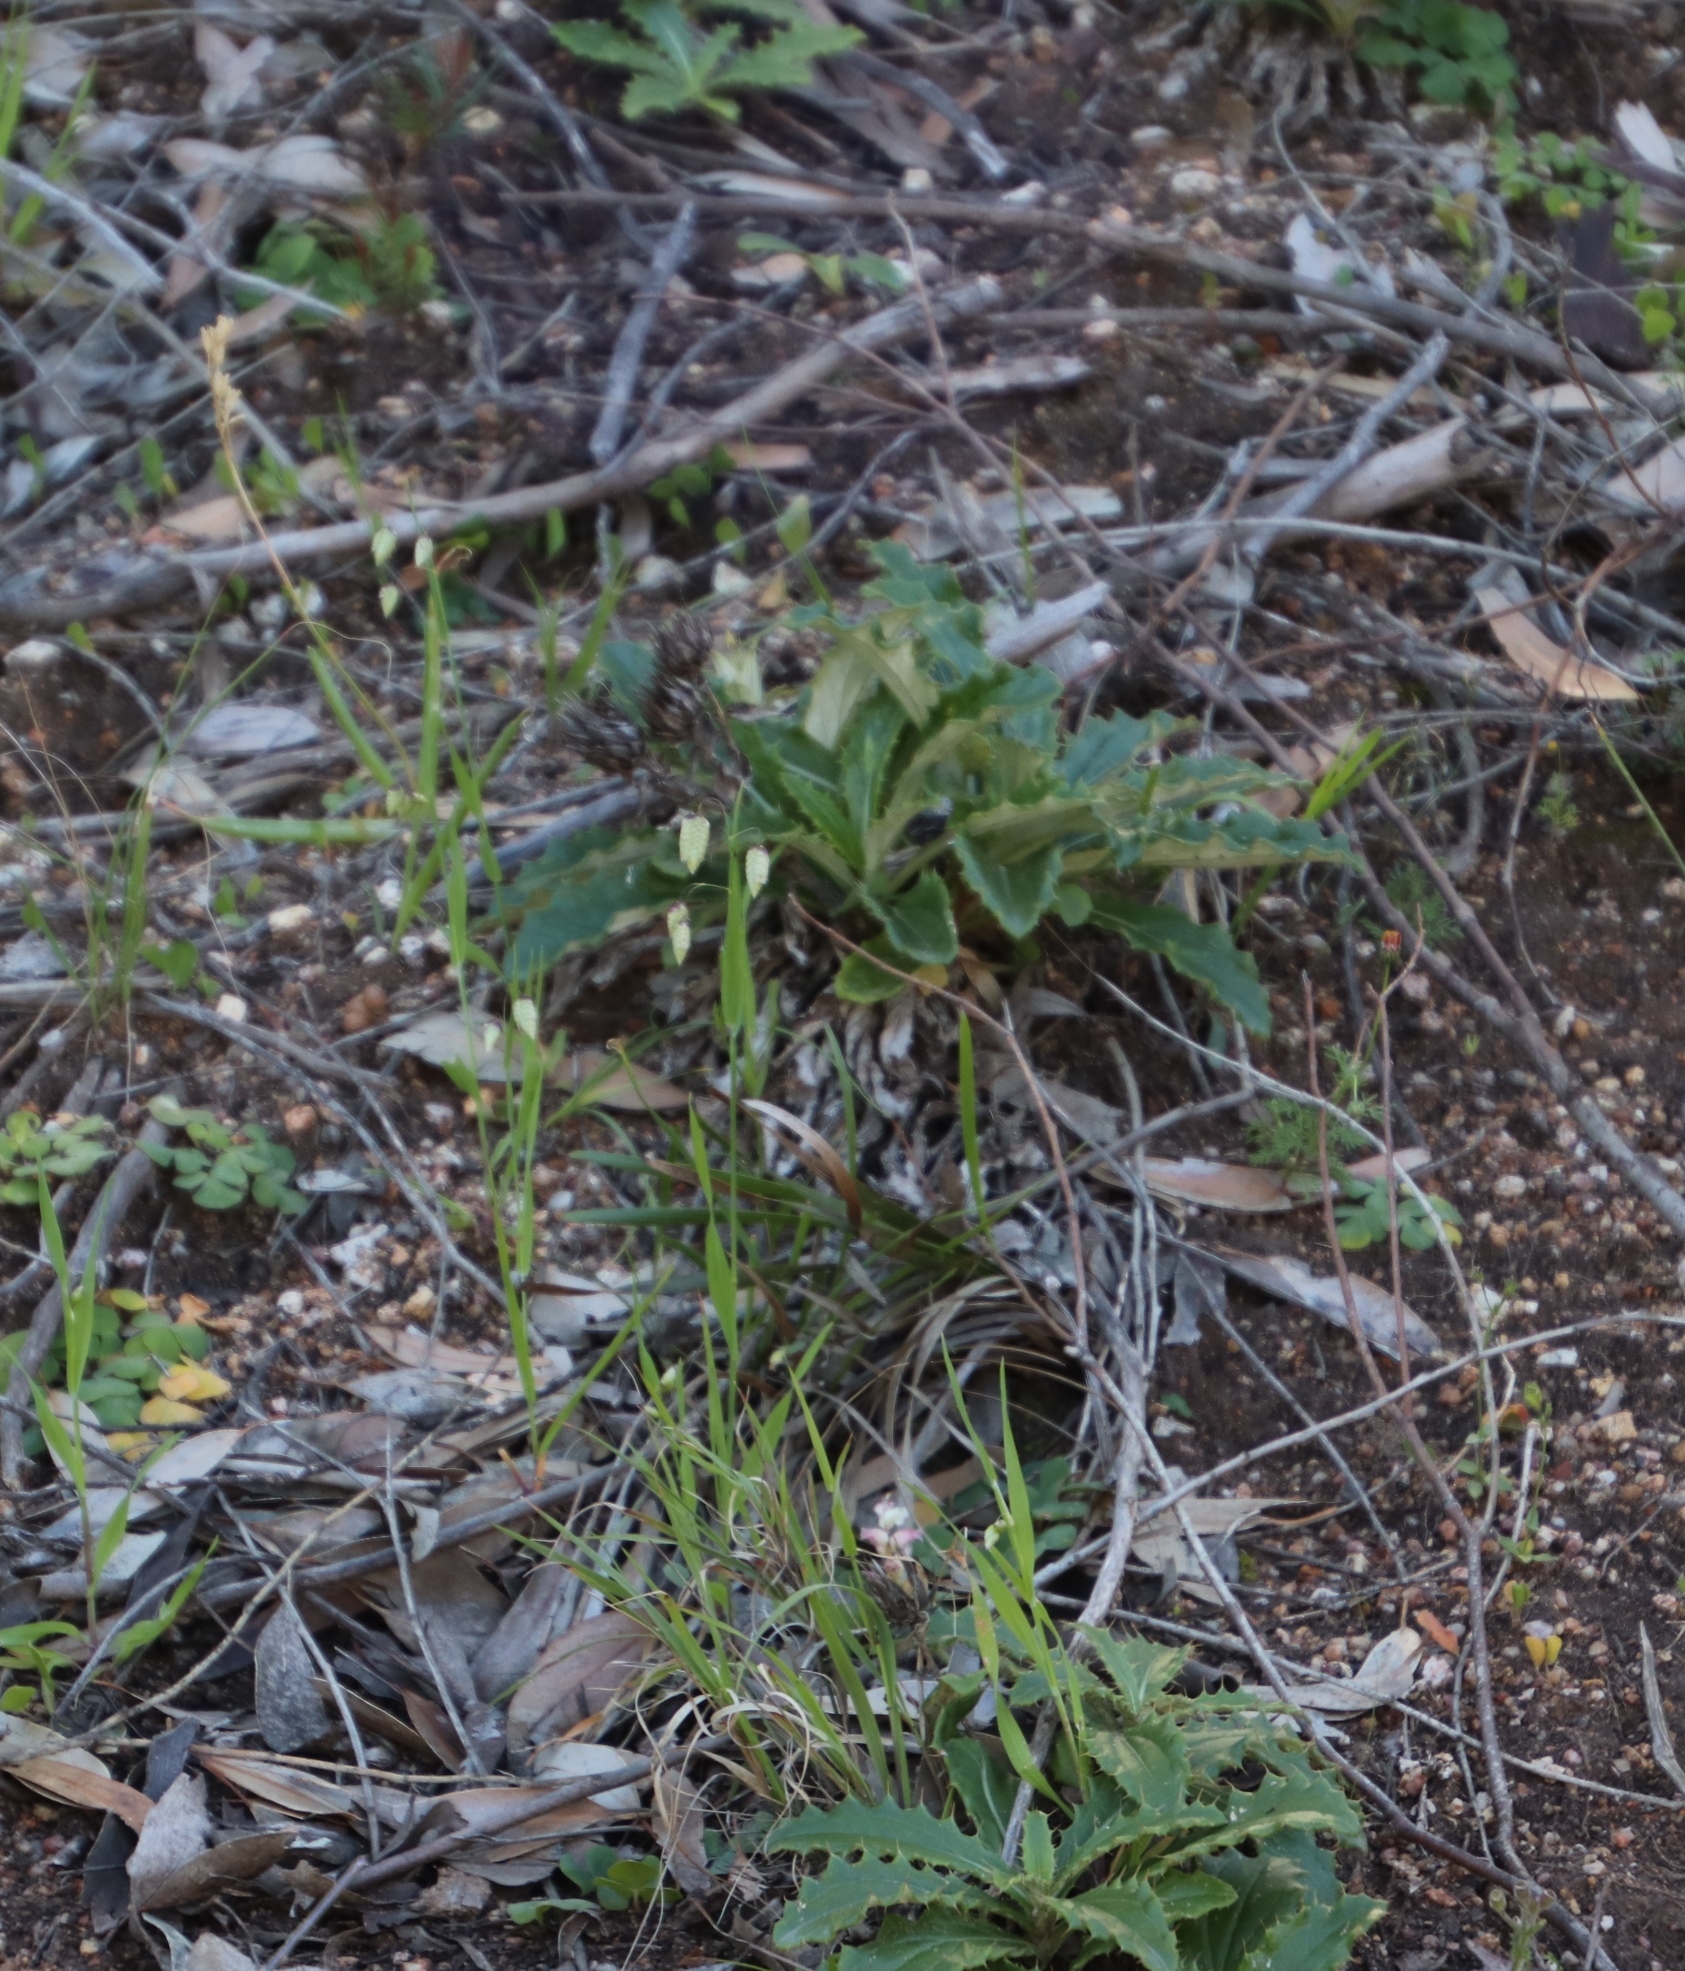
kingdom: Plantae
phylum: Tracheophyta
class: Magnoliopsida
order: Asterales
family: Asteraceae
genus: Berkheya
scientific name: Berkheya armata
